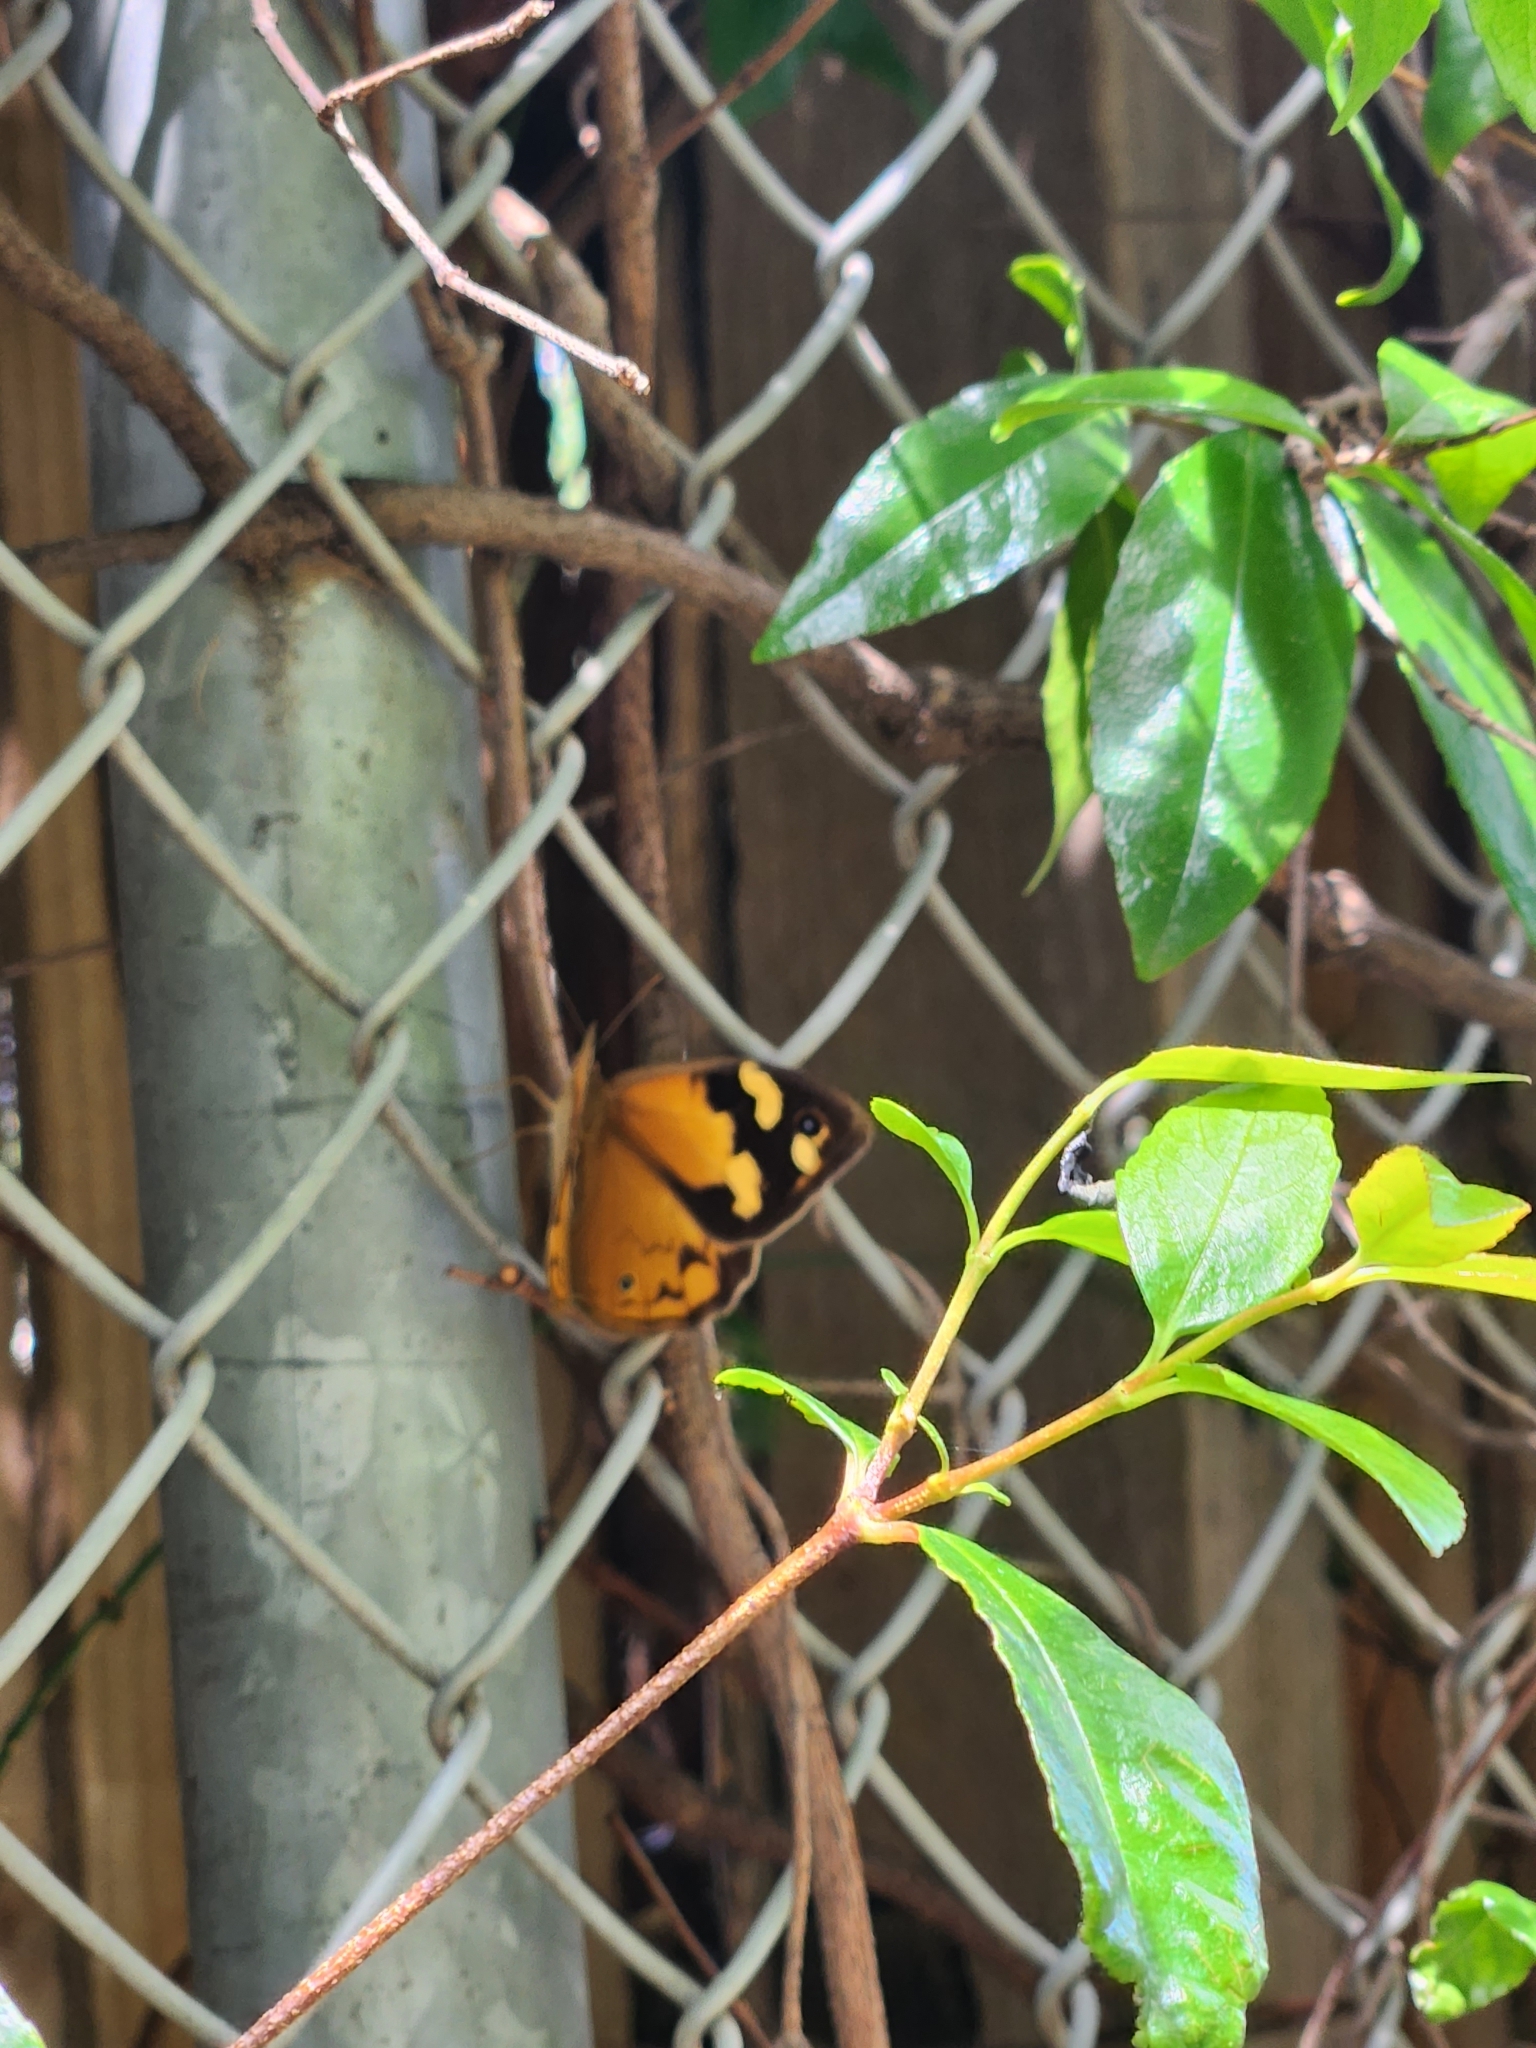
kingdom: Animalia
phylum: Arthropoda
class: Insecta
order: Lepidoptera
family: Nymphalidae
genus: Heteronympha
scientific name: Heteronympha merope
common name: Common brown
